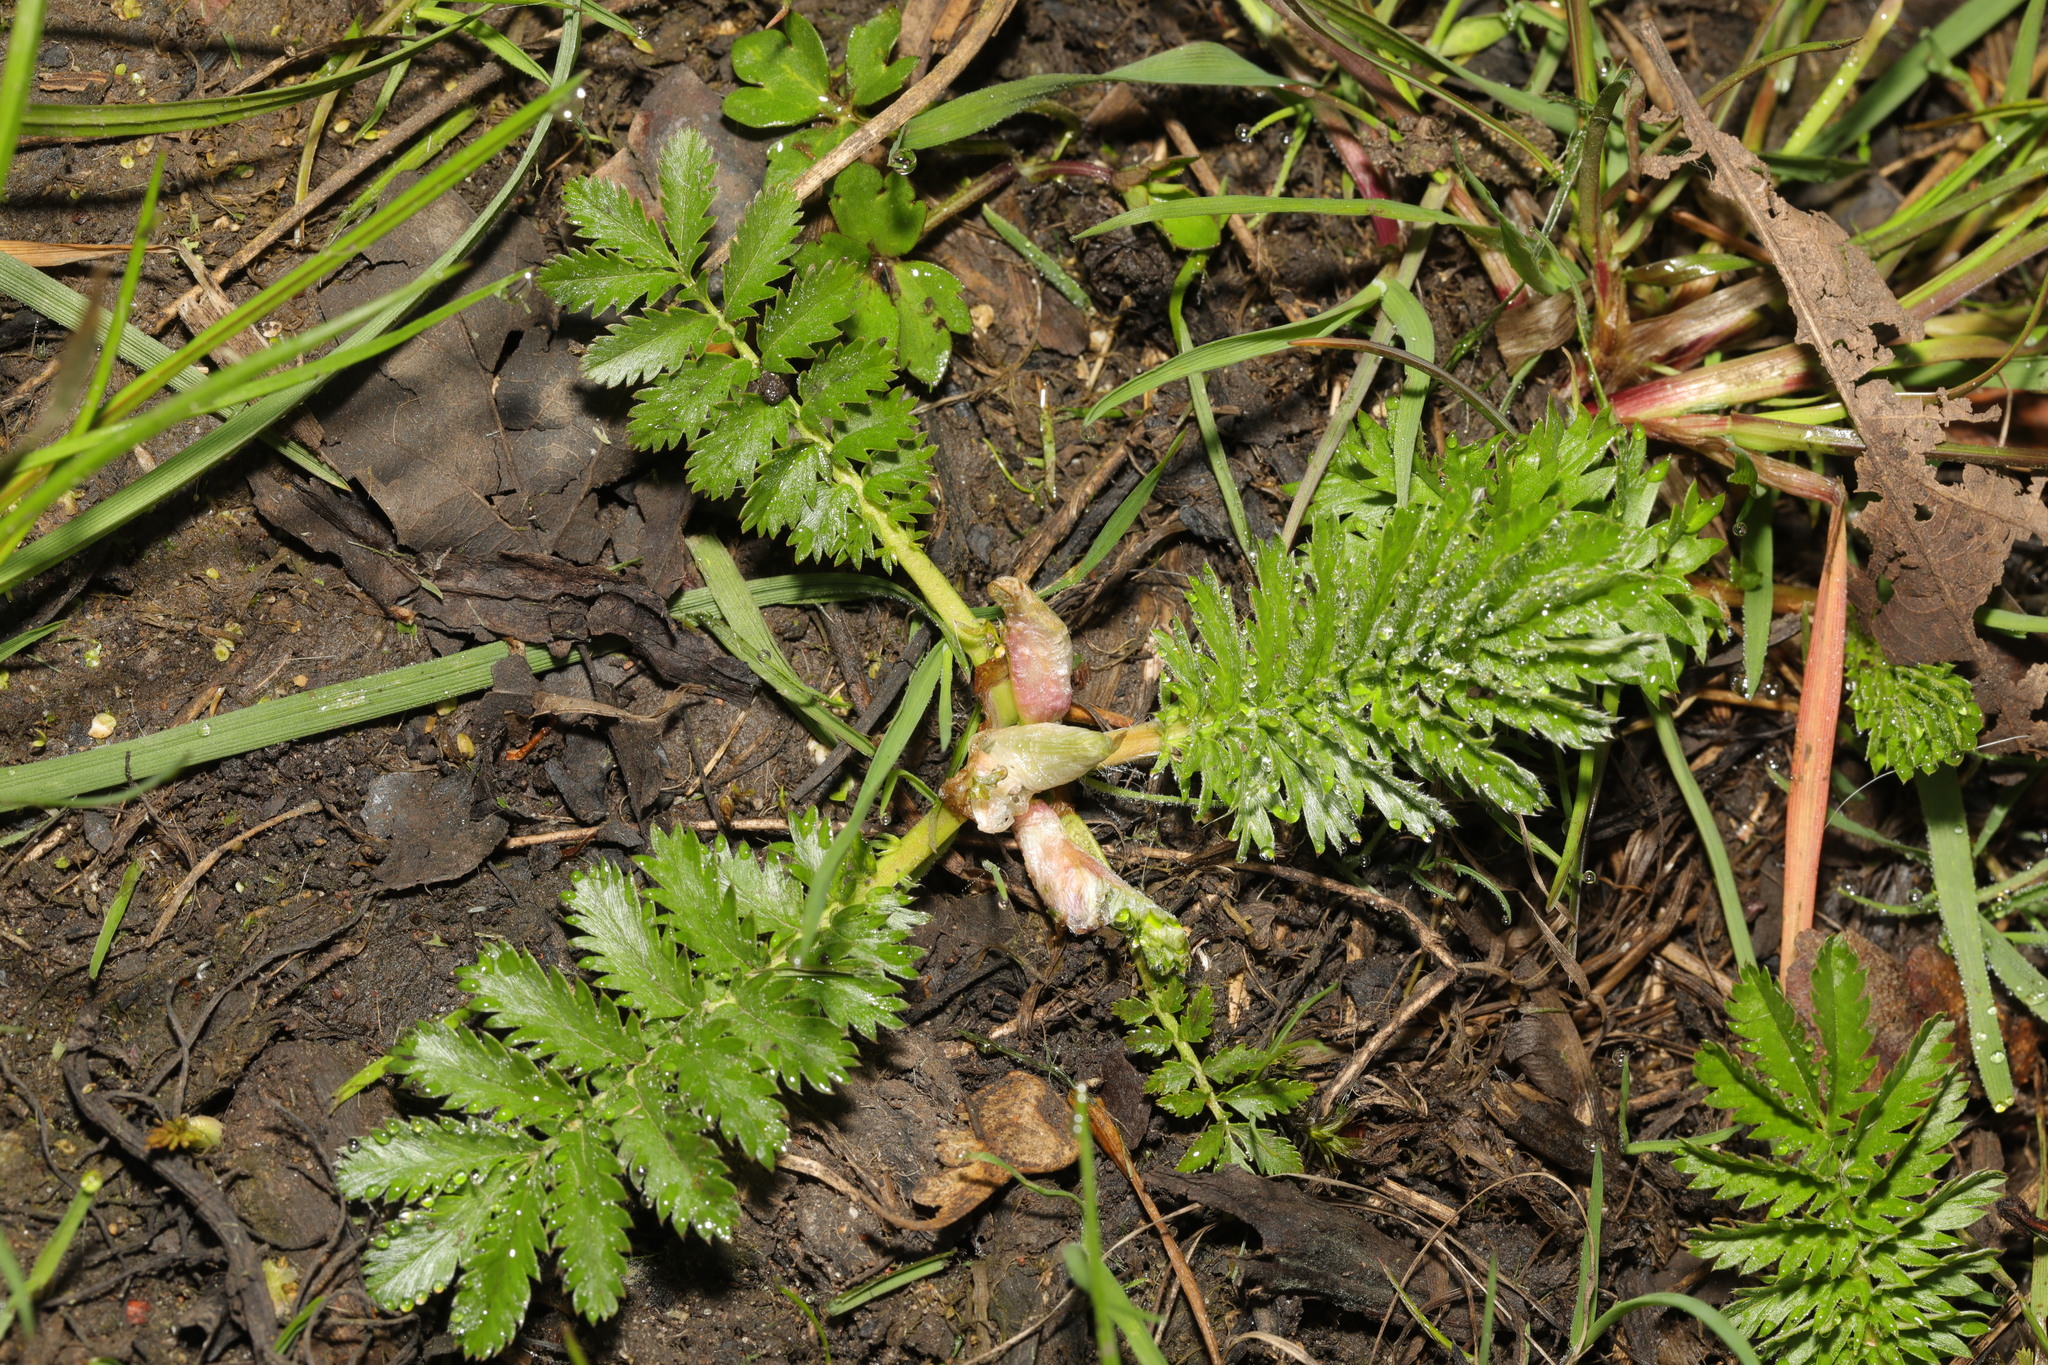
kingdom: Plantae
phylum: Tracheophyta
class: Magnoliopsida
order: Rosales
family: Rosaceae
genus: Argentina
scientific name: Argentina anserina
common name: Common silverweed
